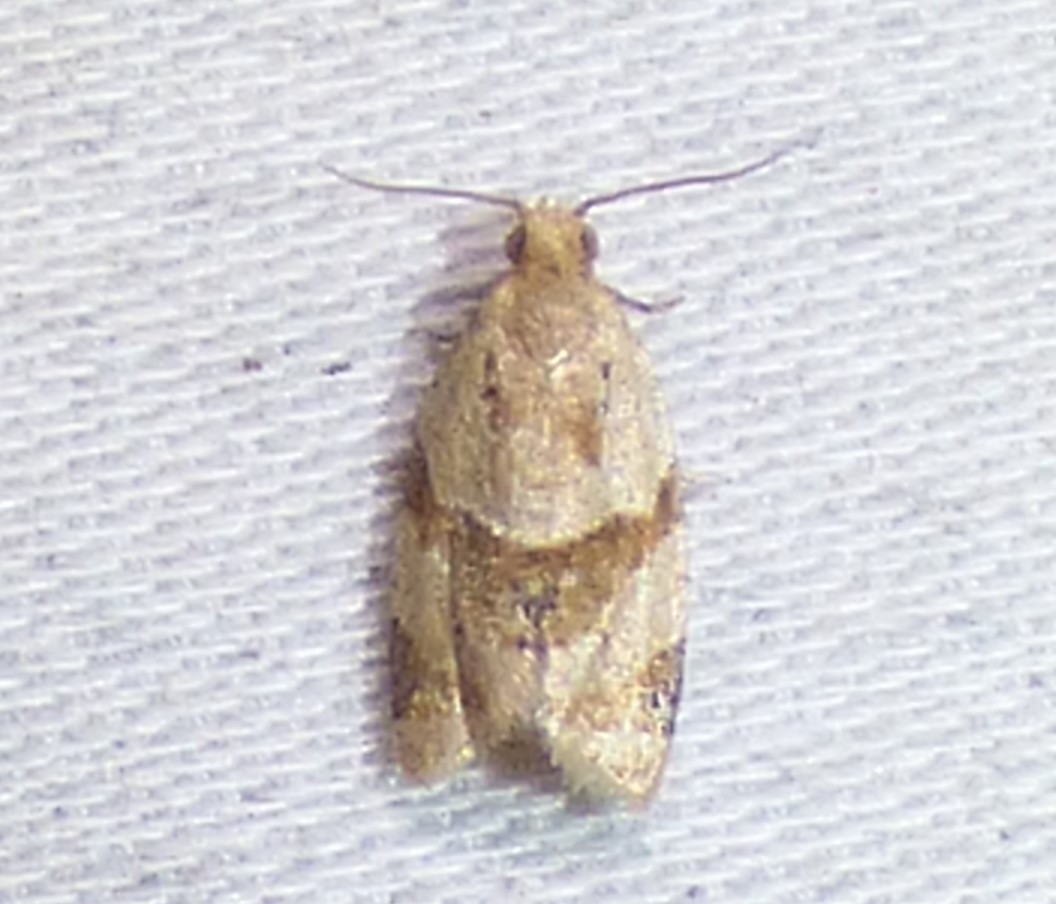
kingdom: Animalia
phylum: Arthropoda
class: Insecta
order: Lepidoptera
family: Tortricidae
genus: Clepsis
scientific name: Clepsis peritana
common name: Garden tortrix
